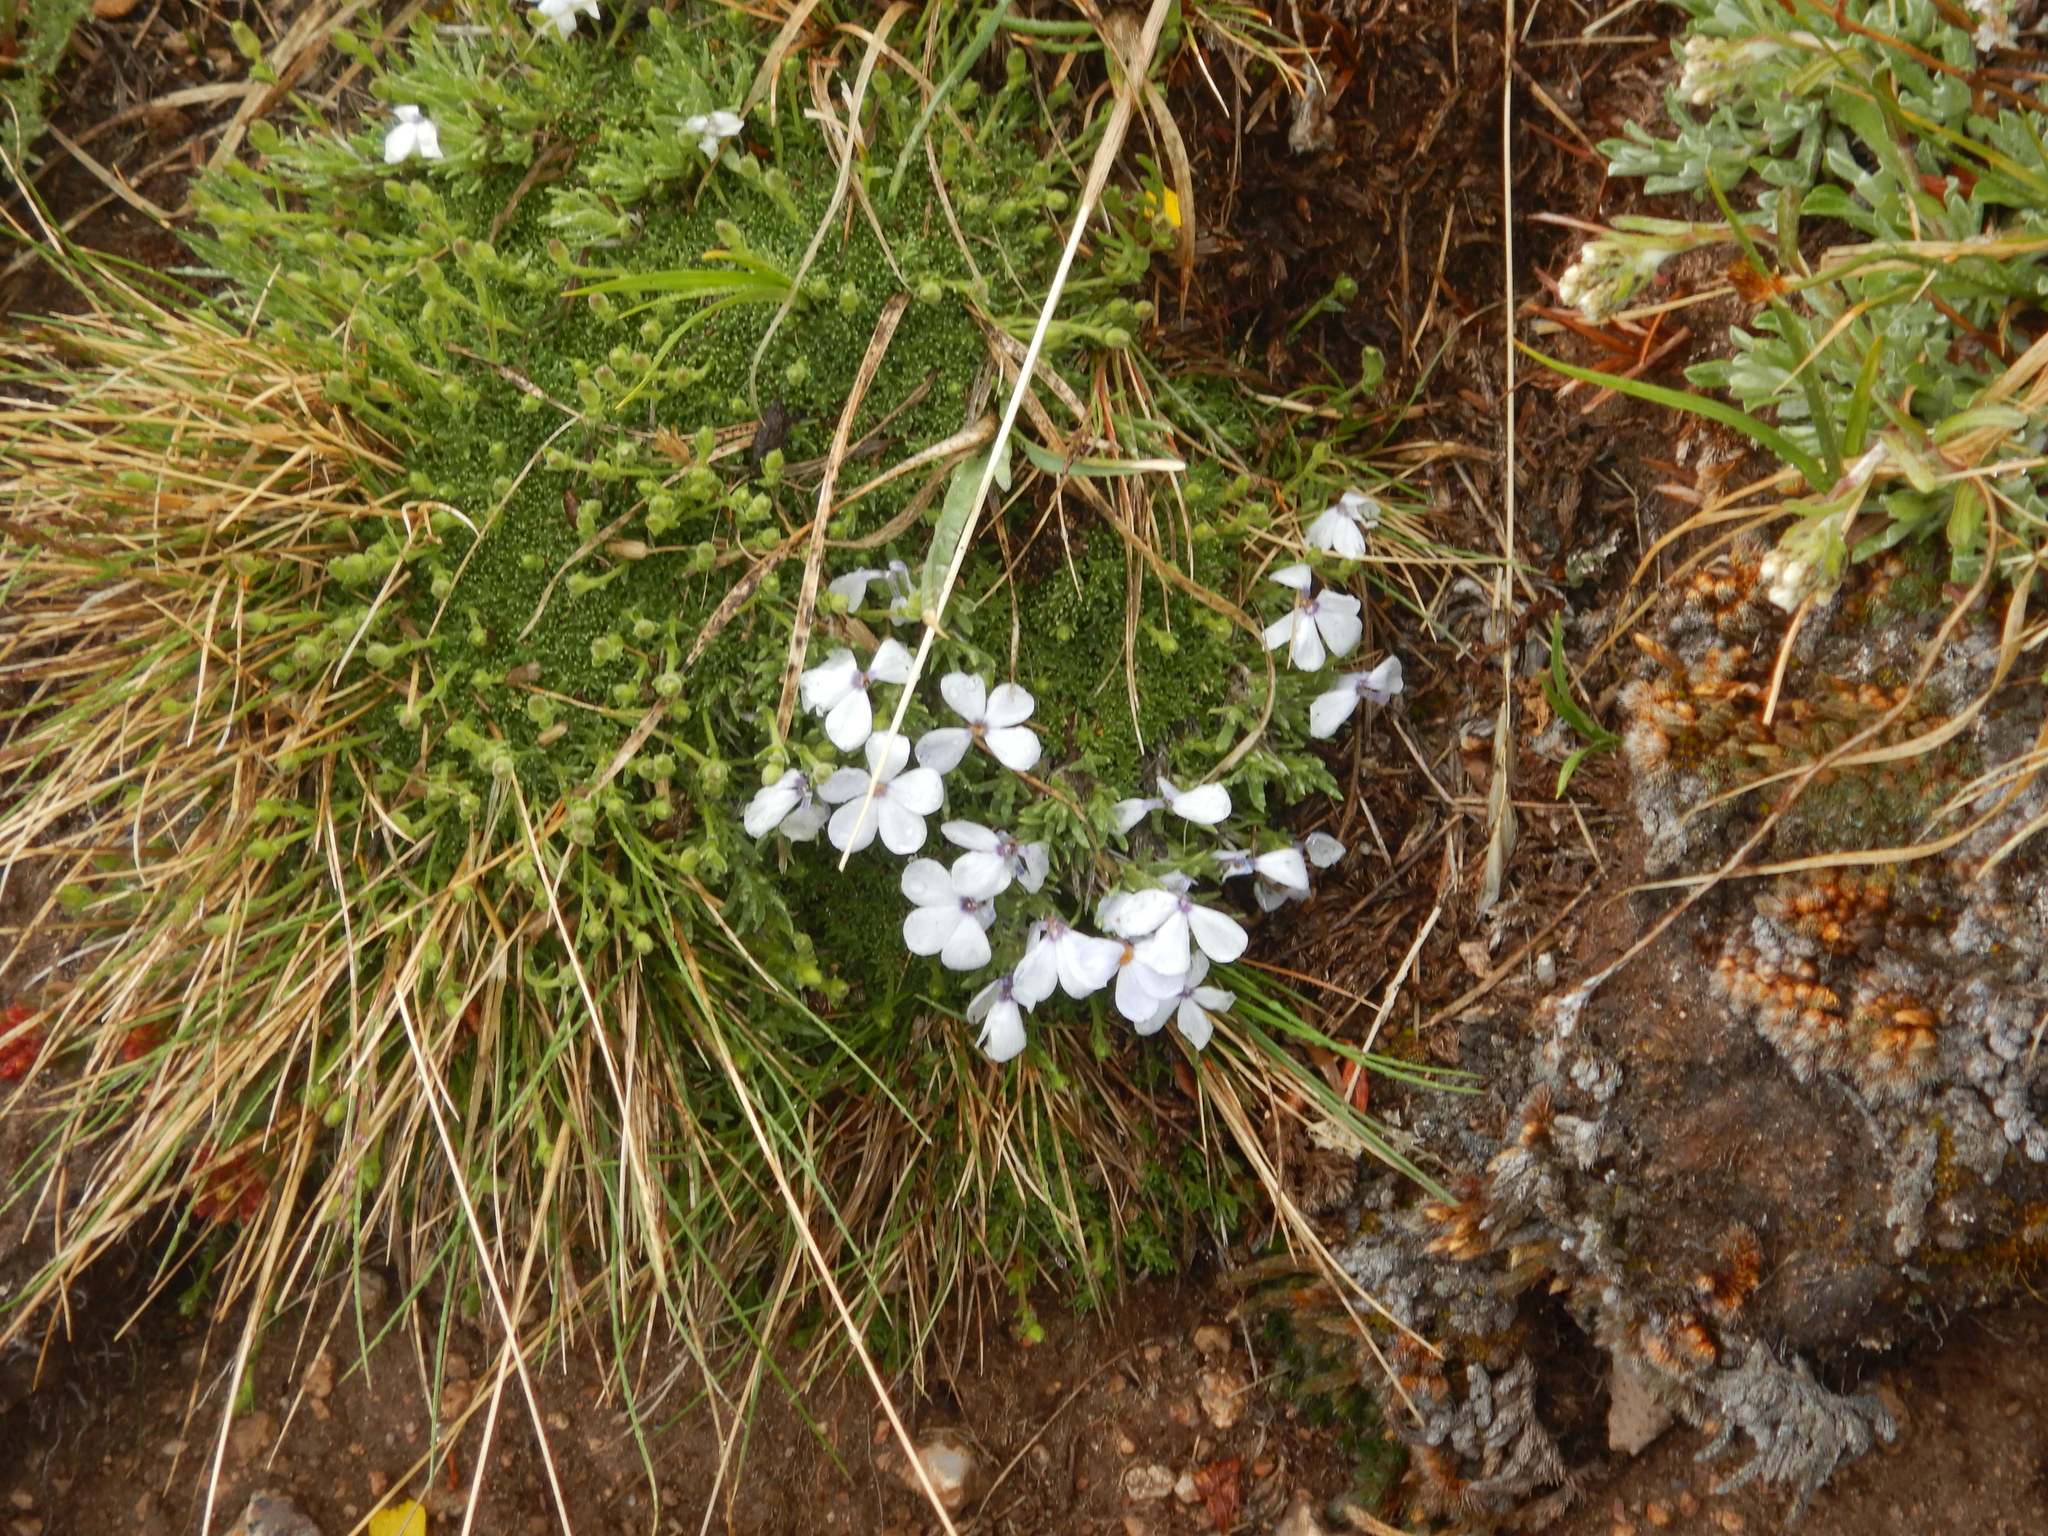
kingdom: Plantae
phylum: Tracheophyta
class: Magnoliopsida
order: Ericales
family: Polemoniaceae
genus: Phlox
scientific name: Phlox condensata
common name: Compact phlox
